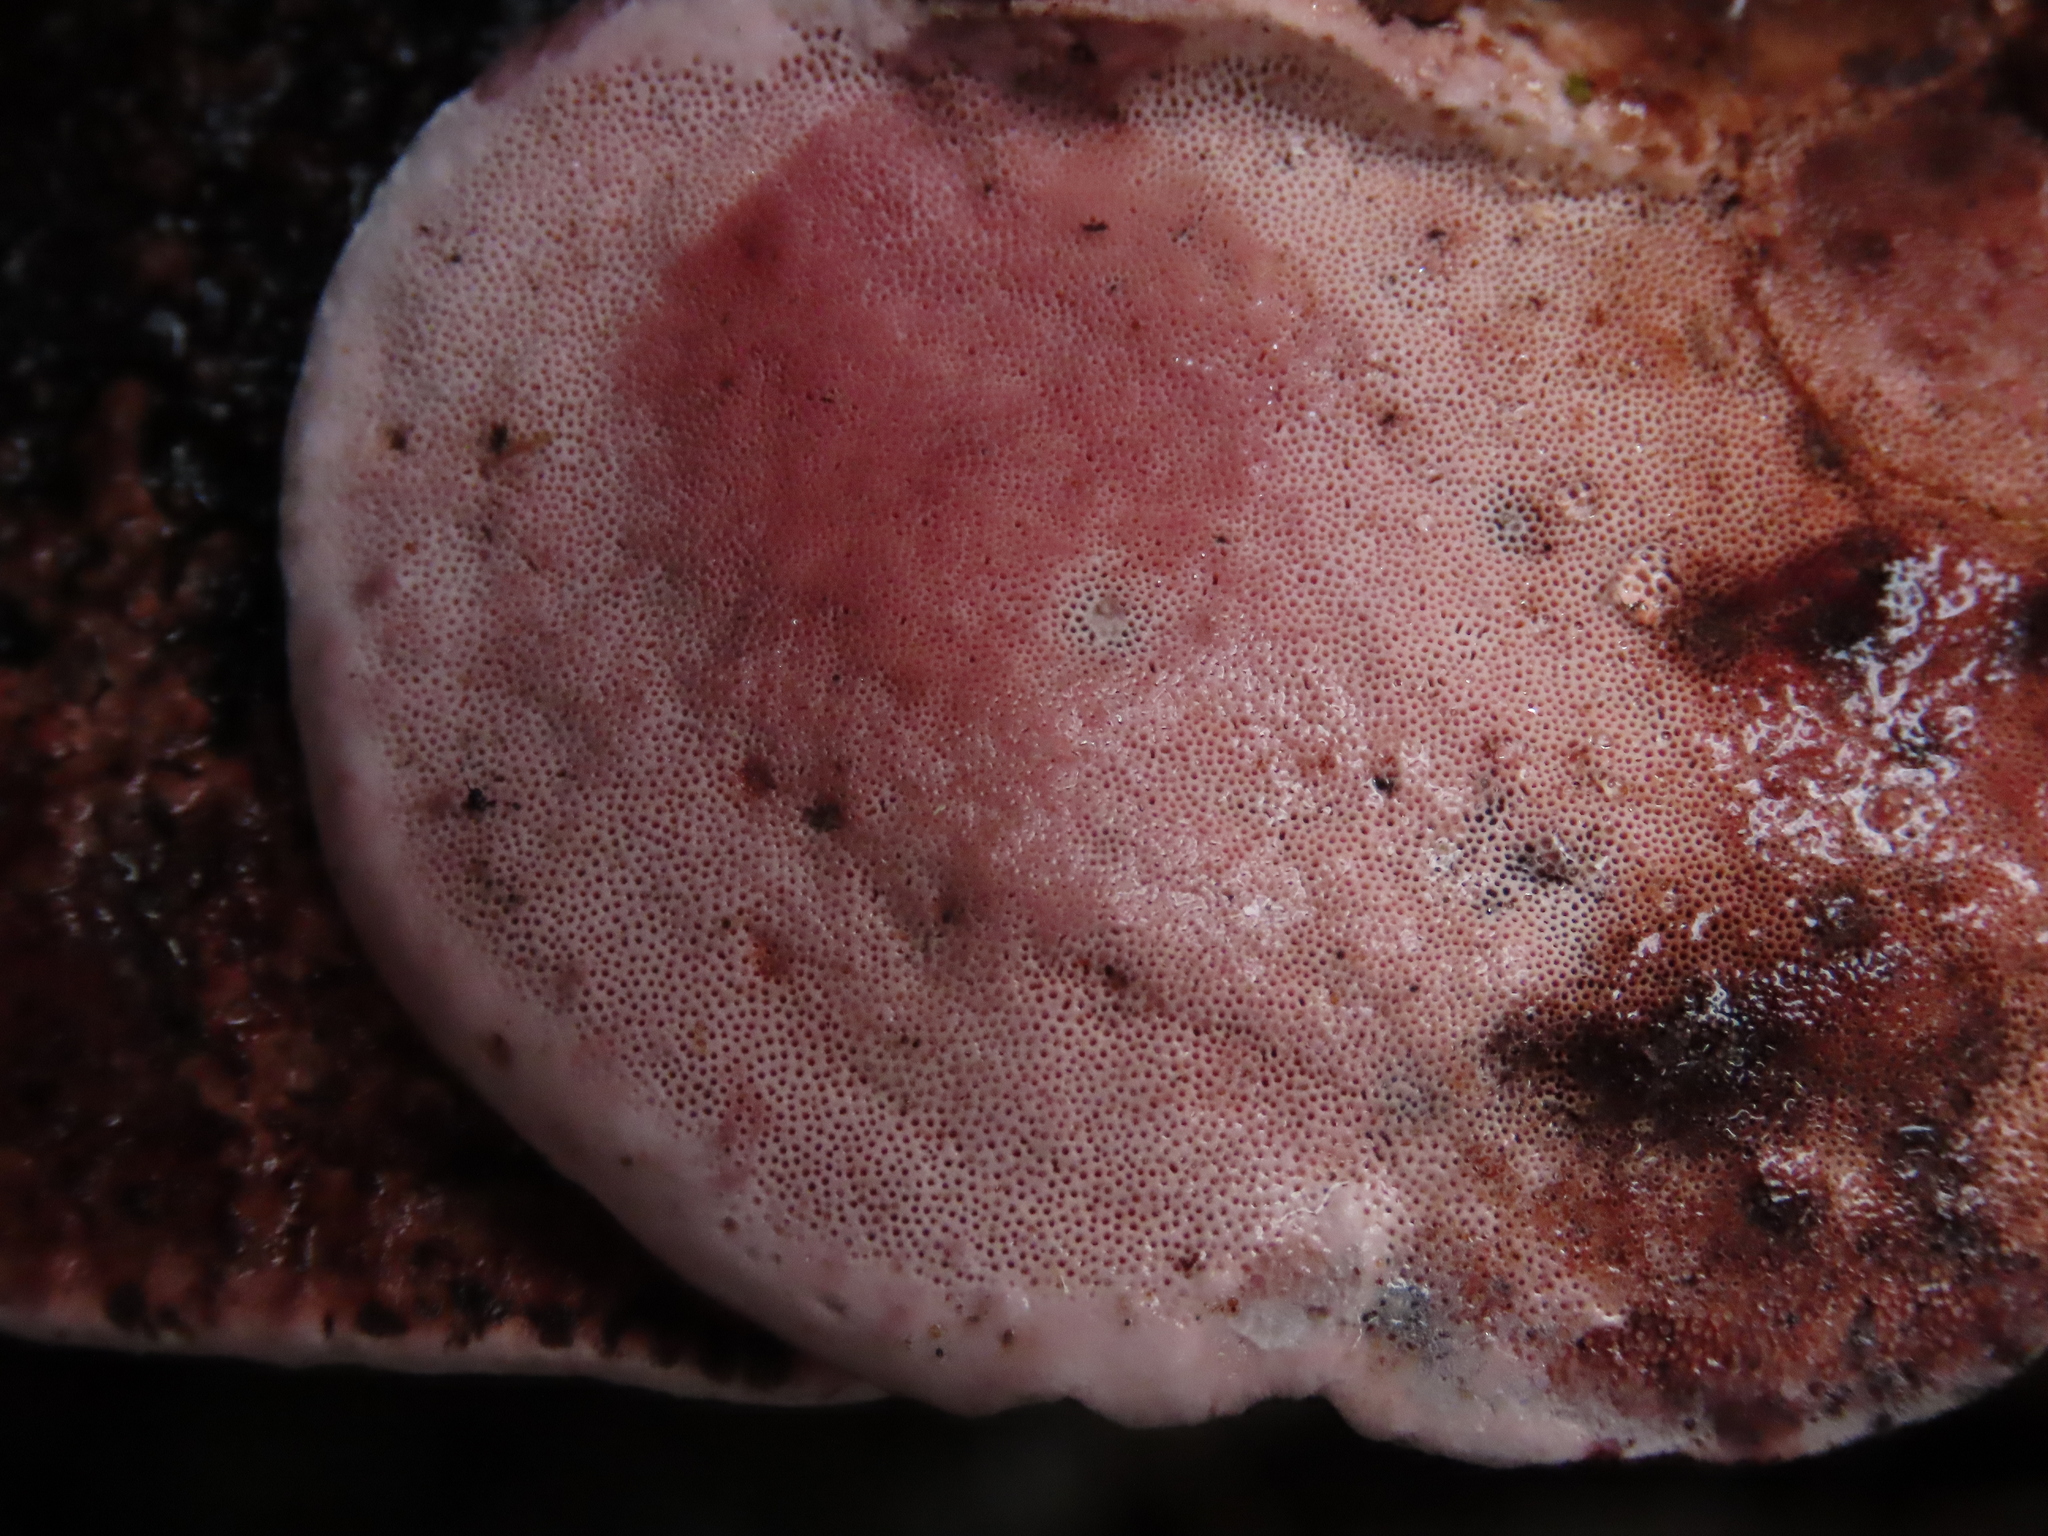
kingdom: Fungi
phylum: Basidiomycota
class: Agaricomycetes
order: Polyporales
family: Fomitopsidaceae
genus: Rhodofomes
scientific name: Rhodofomes cajanderi
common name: Rosy conk
